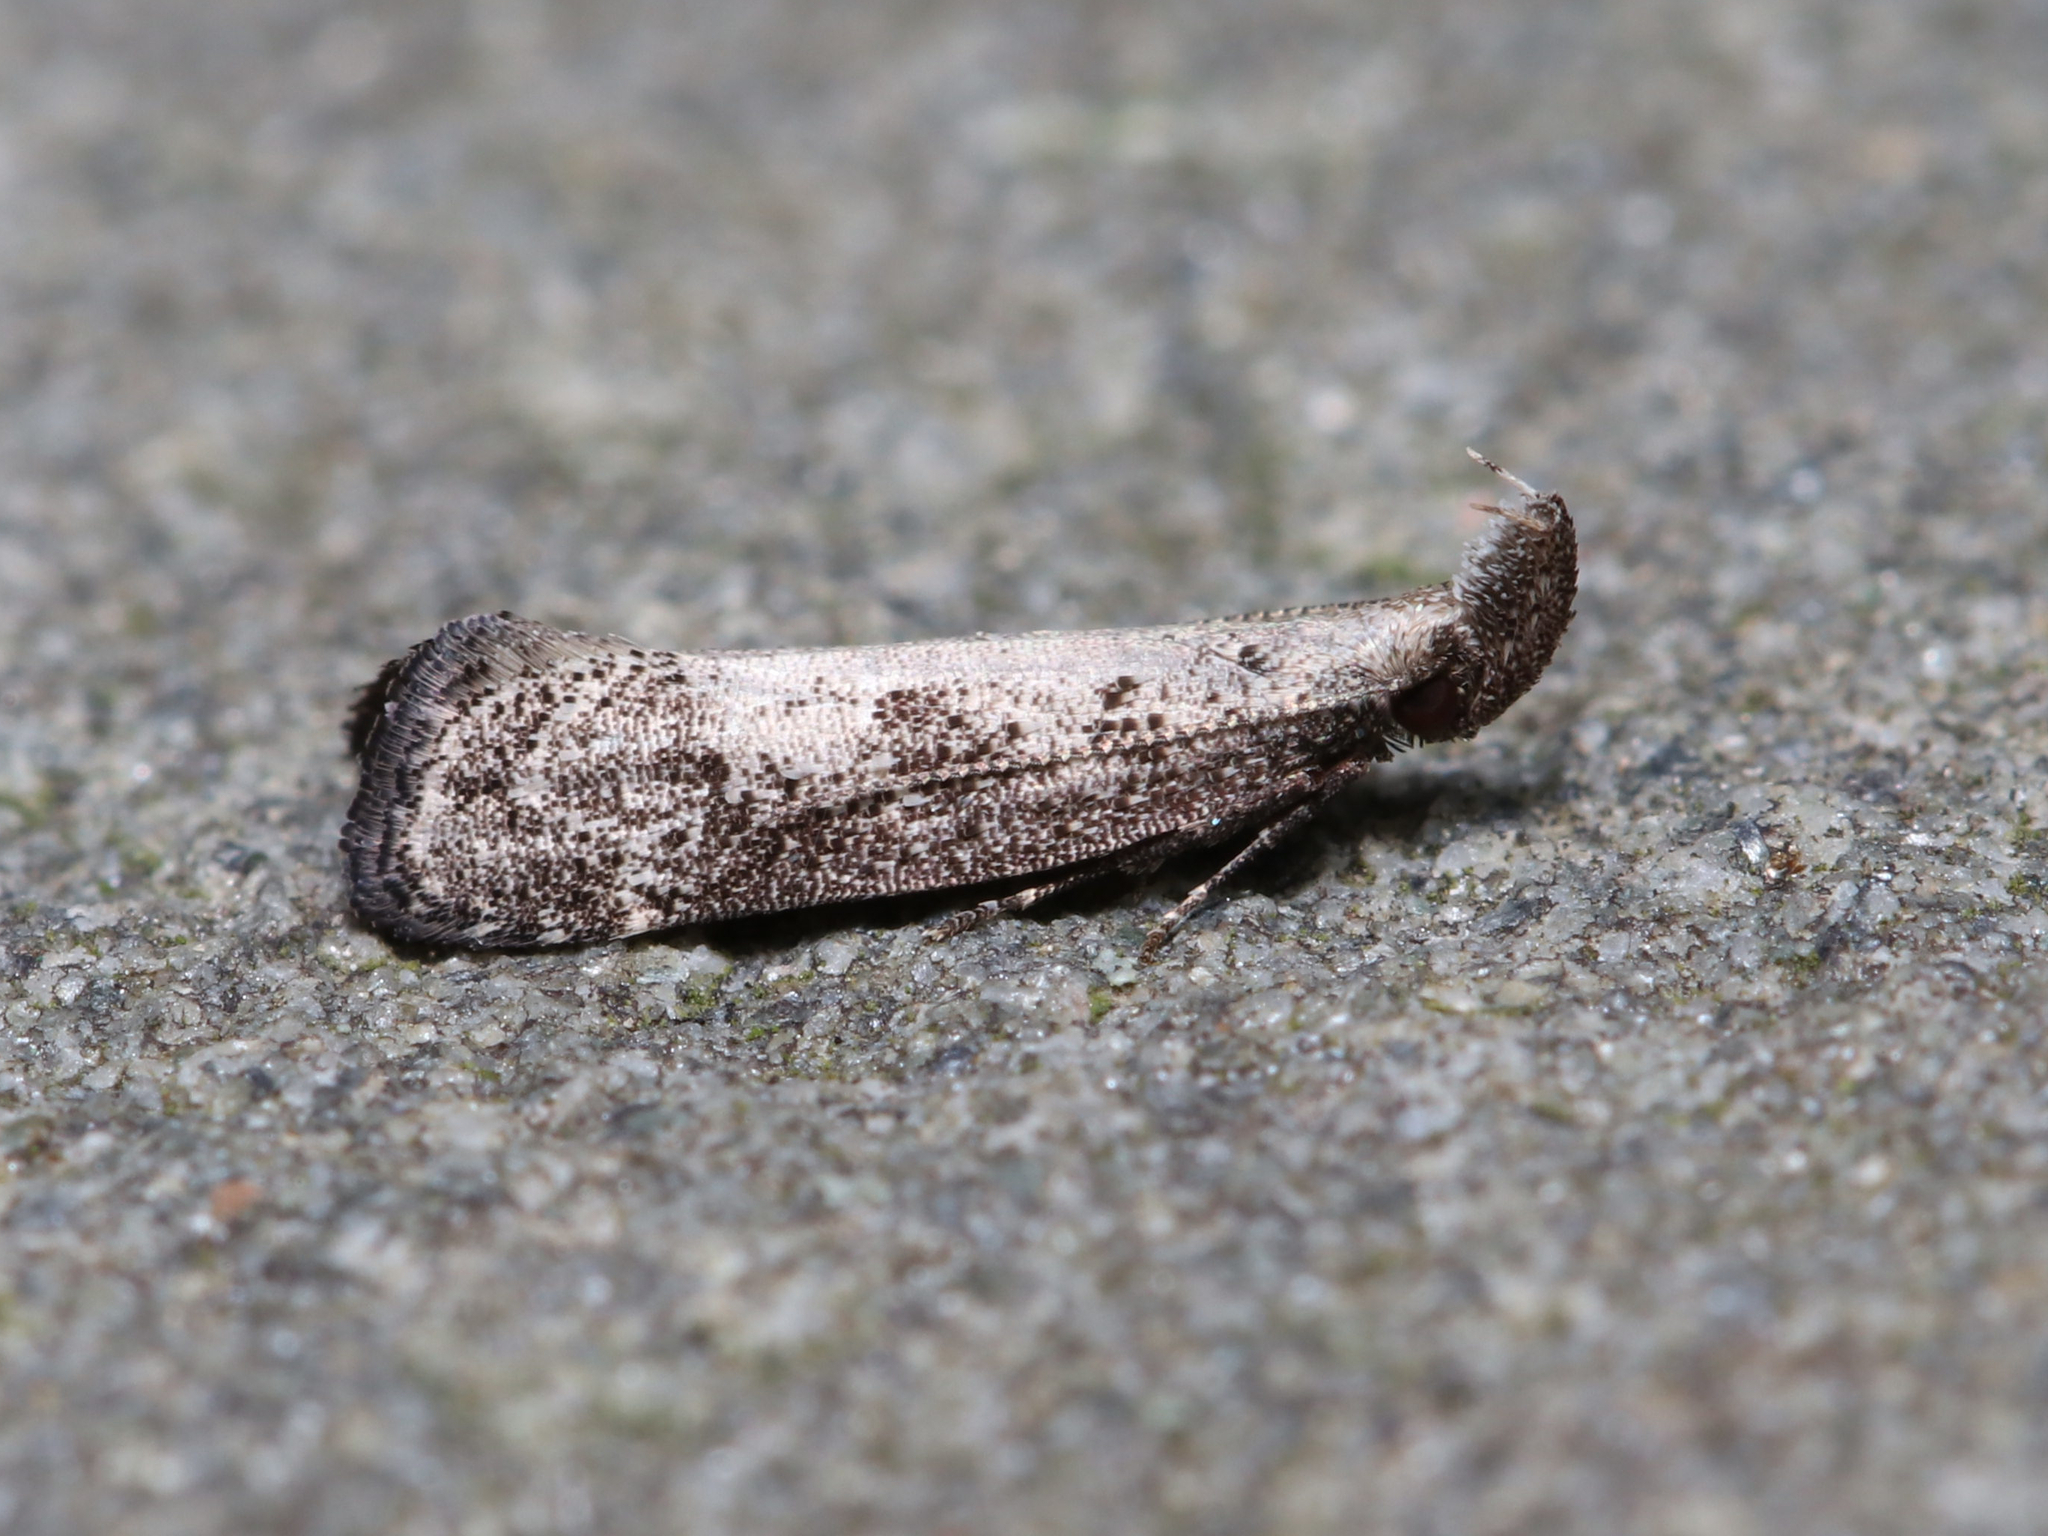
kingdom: Animalia
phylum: Arthropoda
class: Insecta
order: Lepidoptera
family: Gelechiidae
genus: Dichomeris
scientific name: Dichomeris inversella
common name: Inverse dichomeris moth
